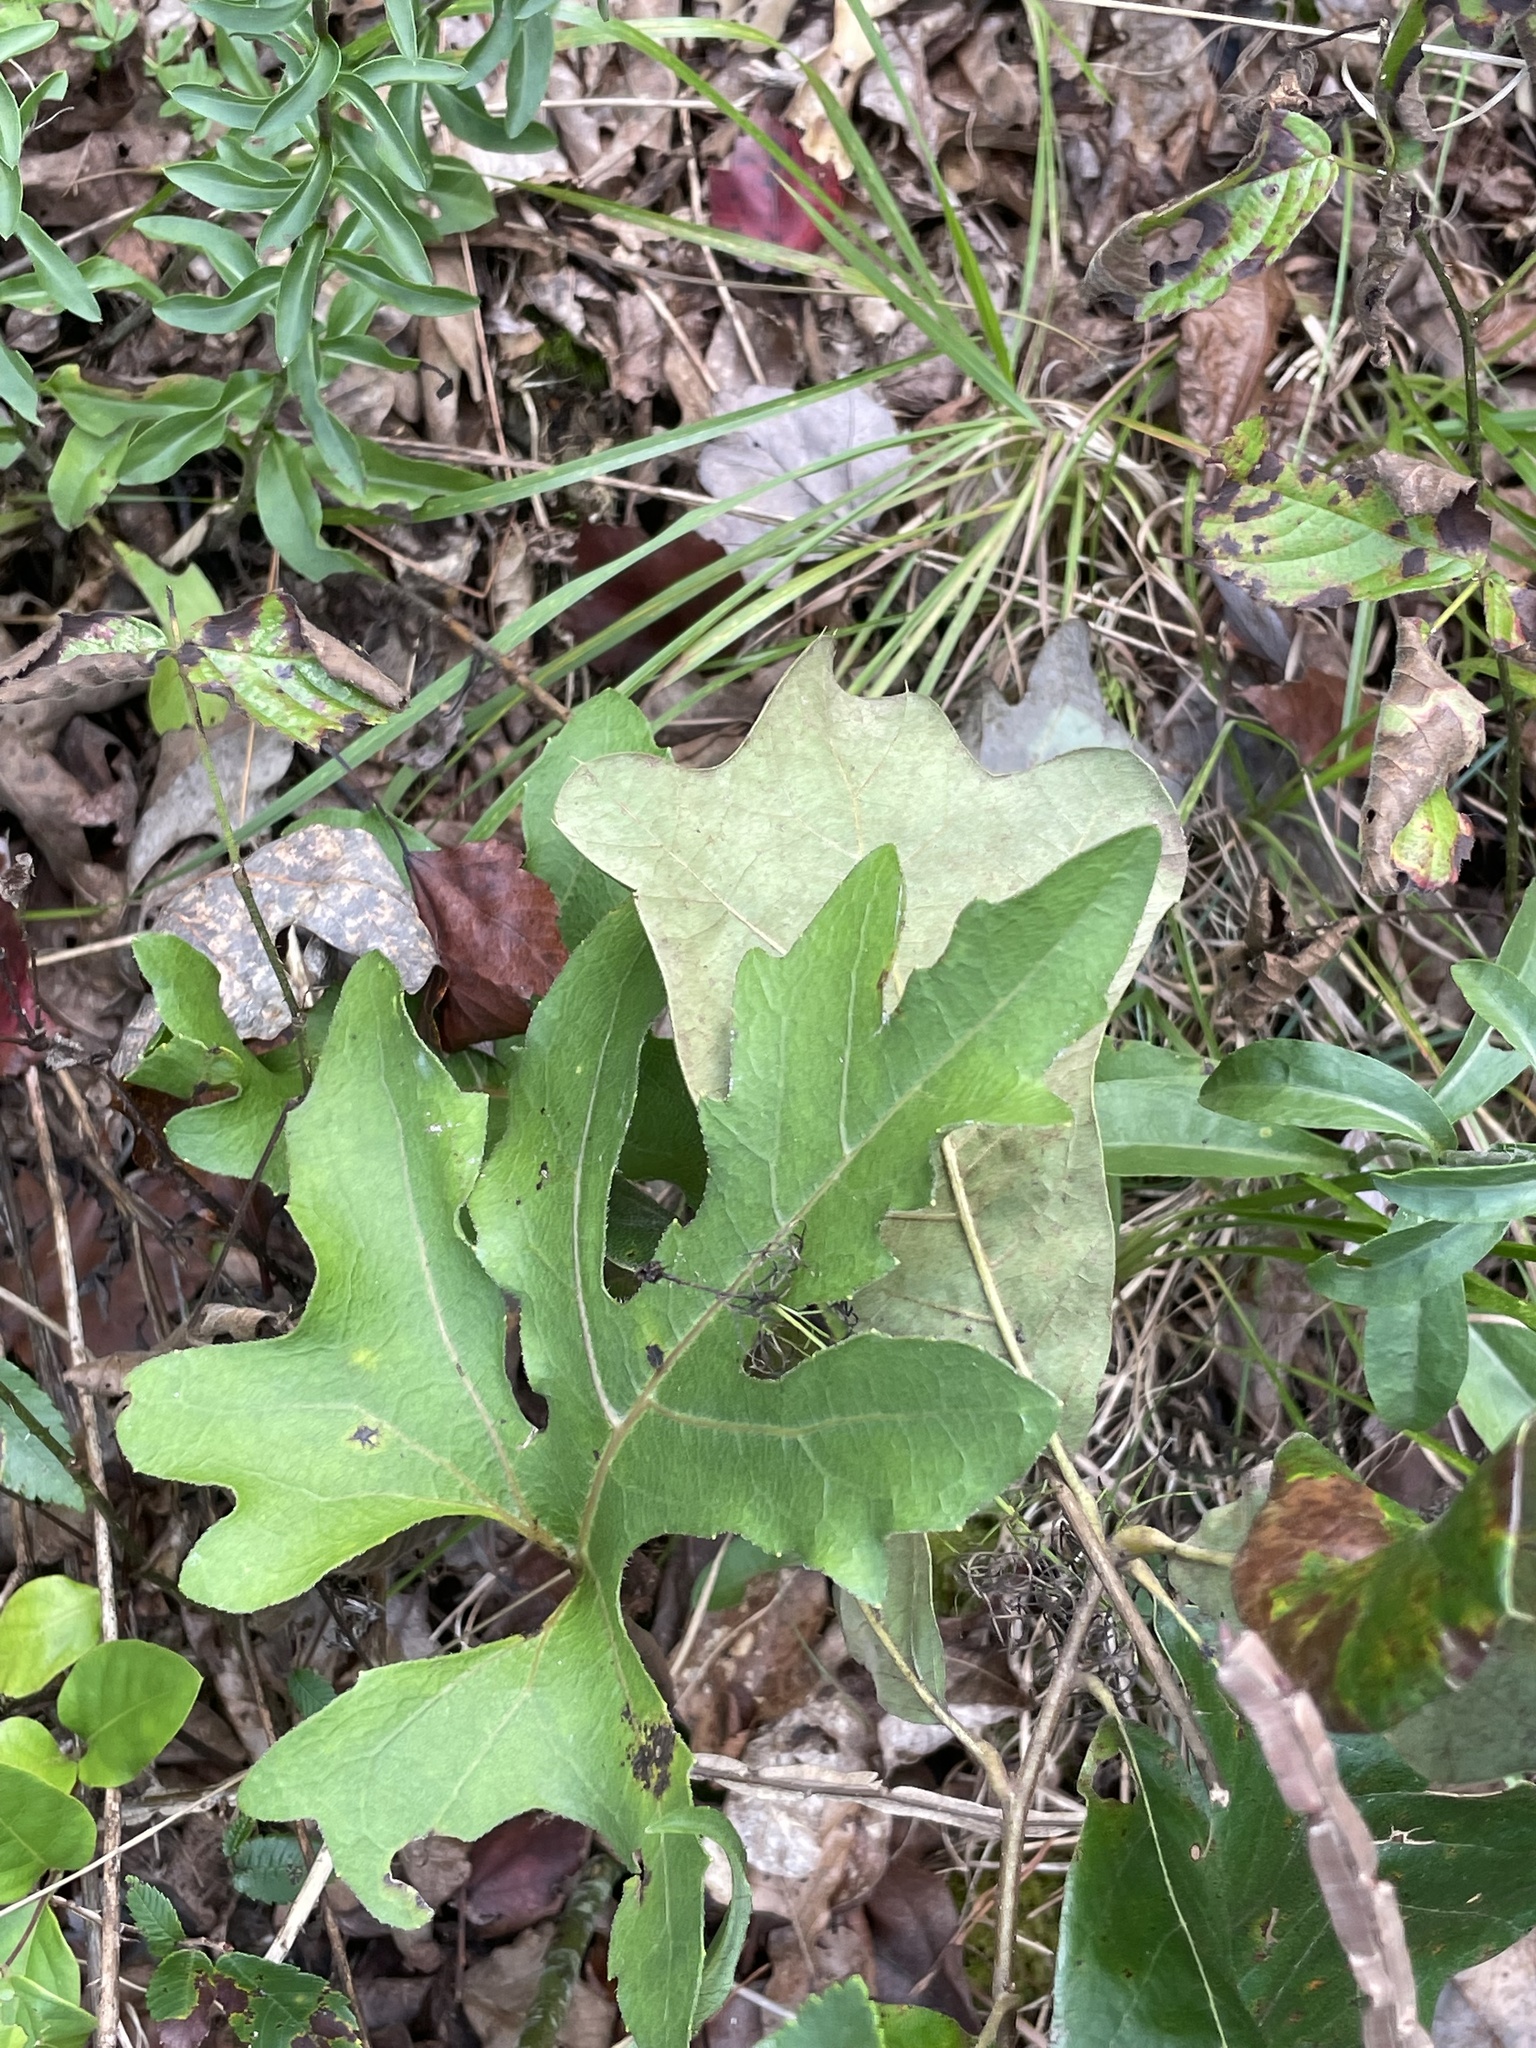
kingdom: Plantae
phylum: Tracheophyta
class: Magnoliopsida
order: Asterales
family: Asteraceae
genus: Silphium
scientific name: Silphium compositum
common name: Lesser basal-leaf rosinweed
